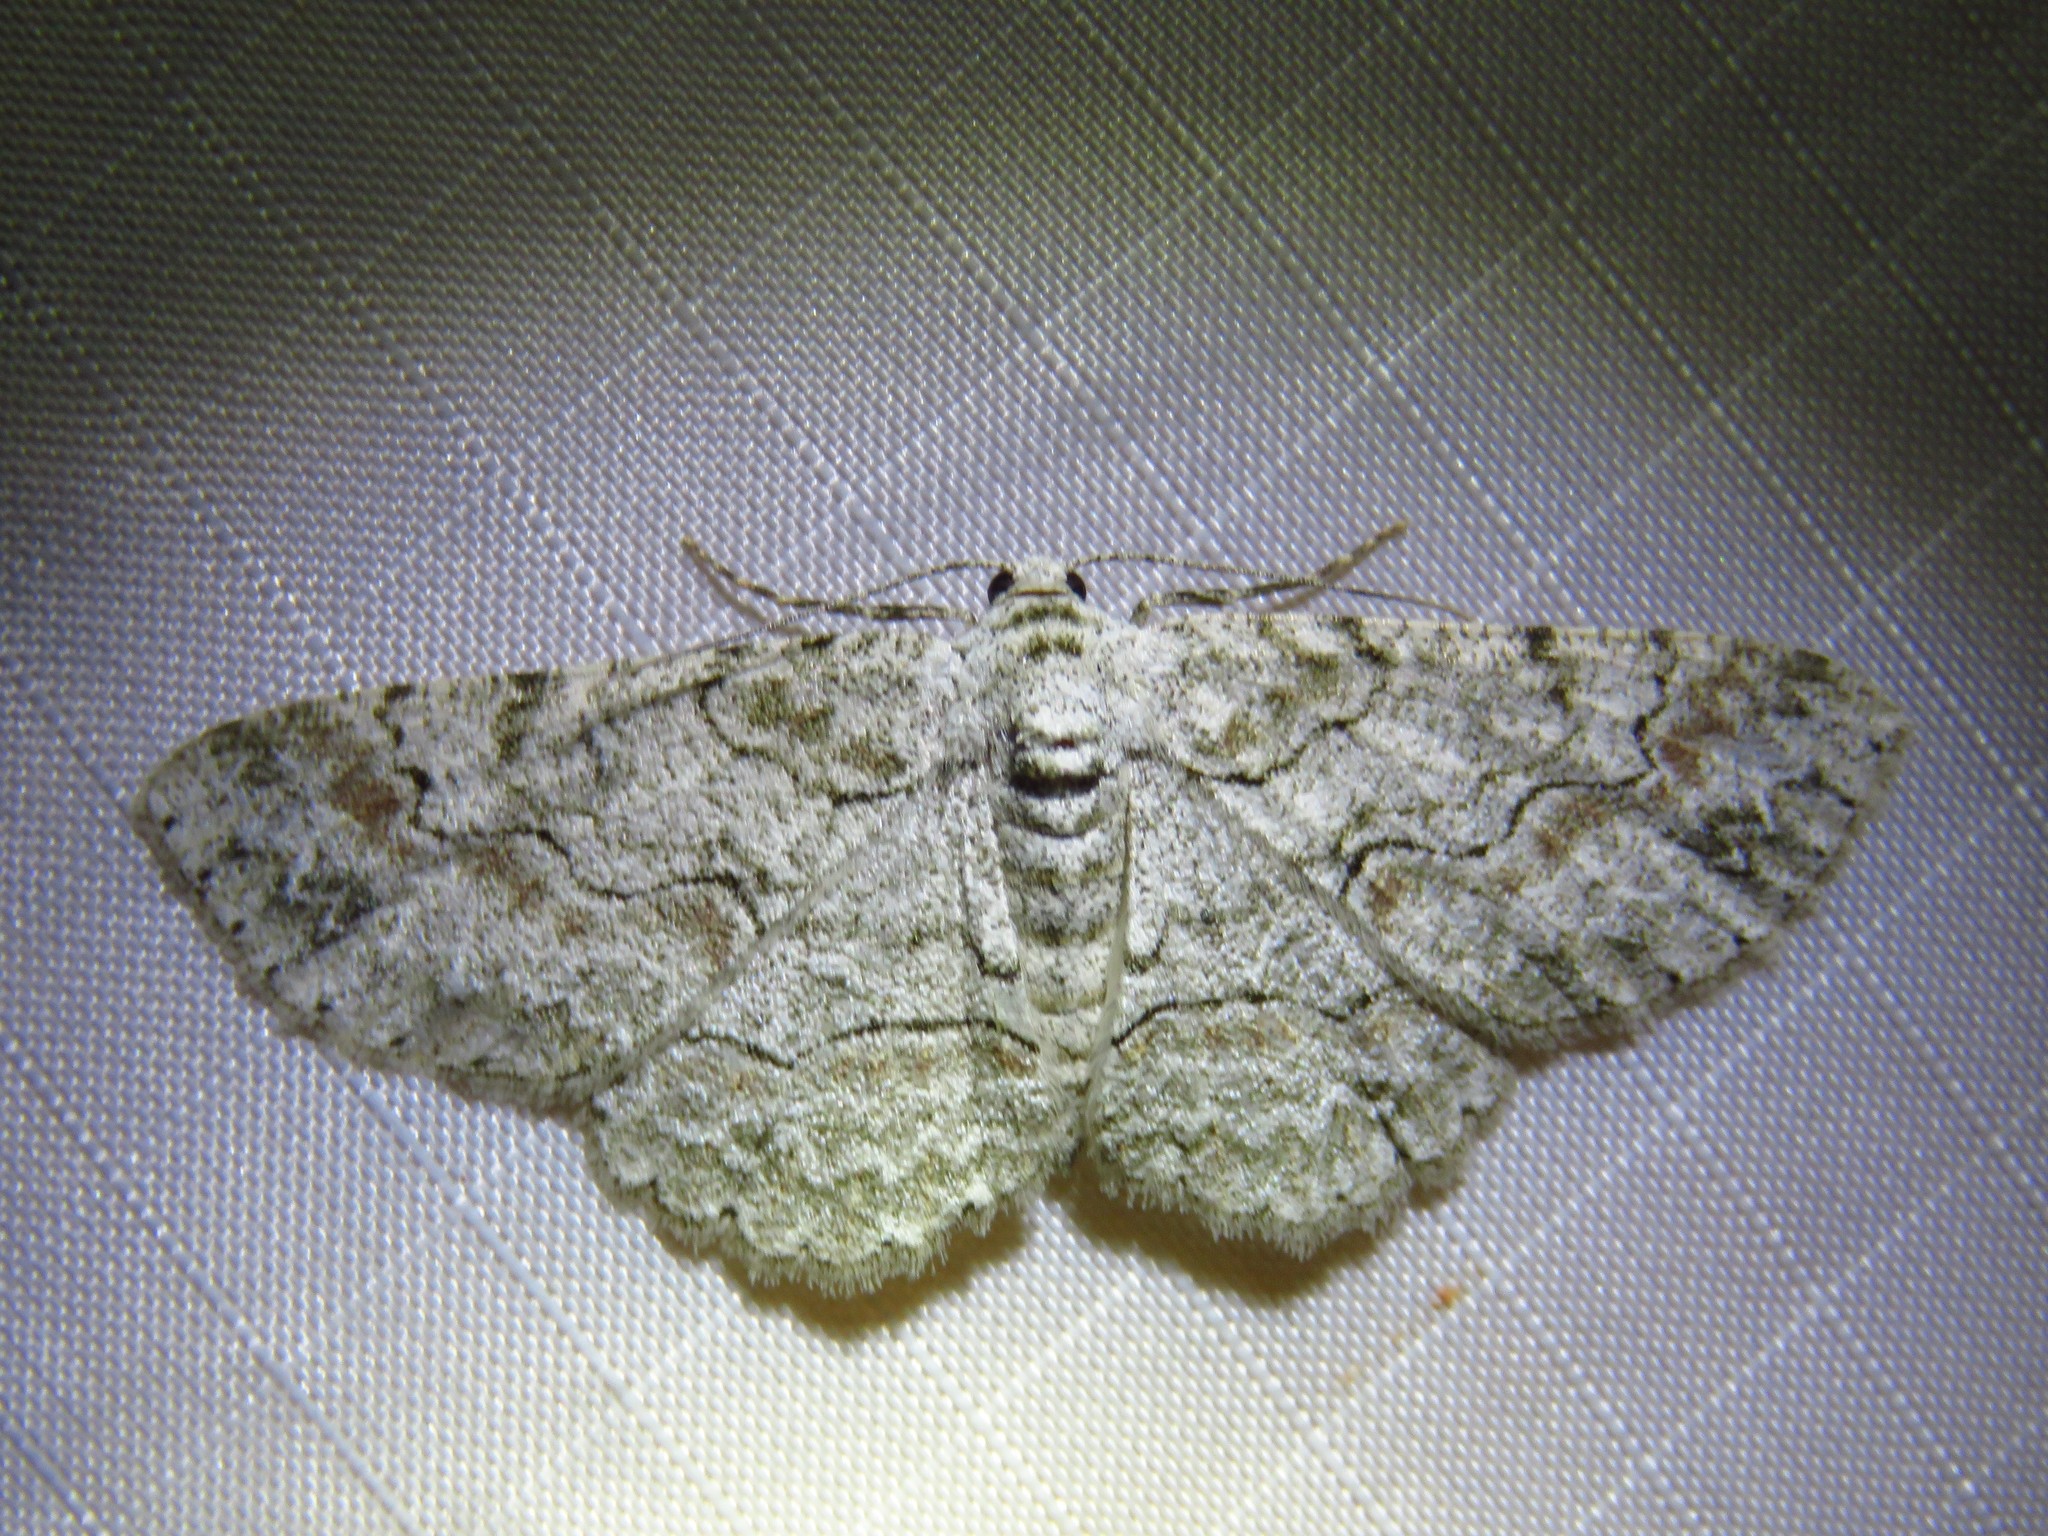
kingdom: Animalia
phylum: Arthropoda
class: Insecta
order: Lepidoptera
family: Geometridae
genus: Iridopsis
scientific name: Iridopsis defectaria
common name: Brown-shaded gray
